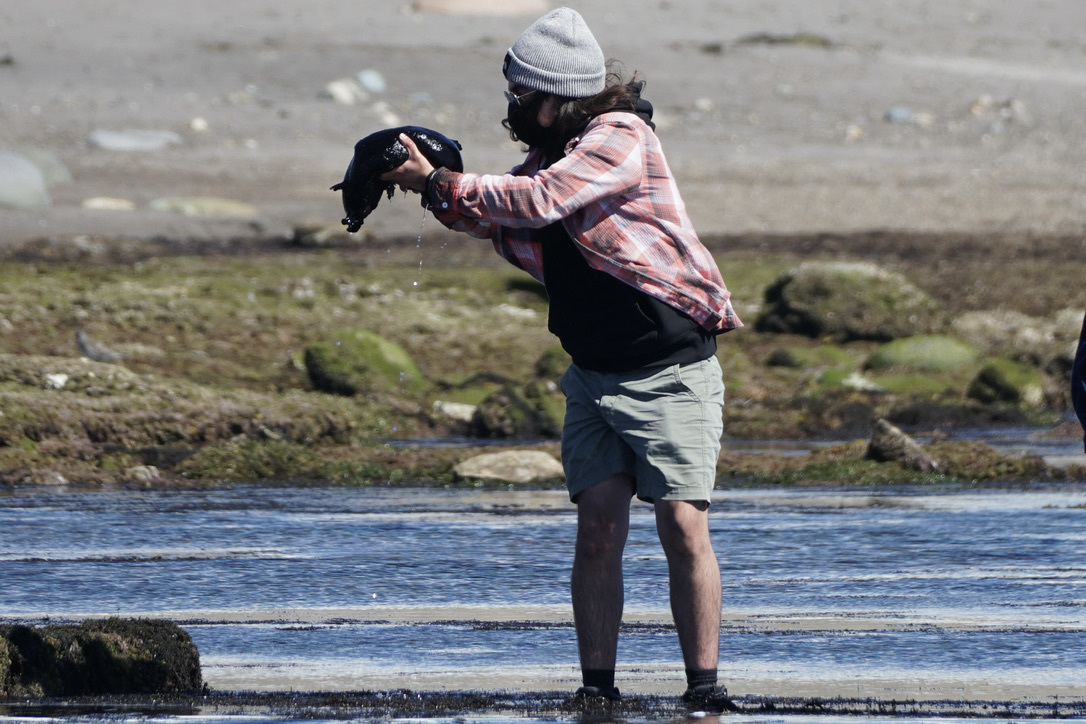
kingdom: Animalia
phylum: Mollusca
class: Gastropoda
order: Aplysiida
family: Aplysiidae
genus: Aplysia
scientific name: Aplysia vaccaria
